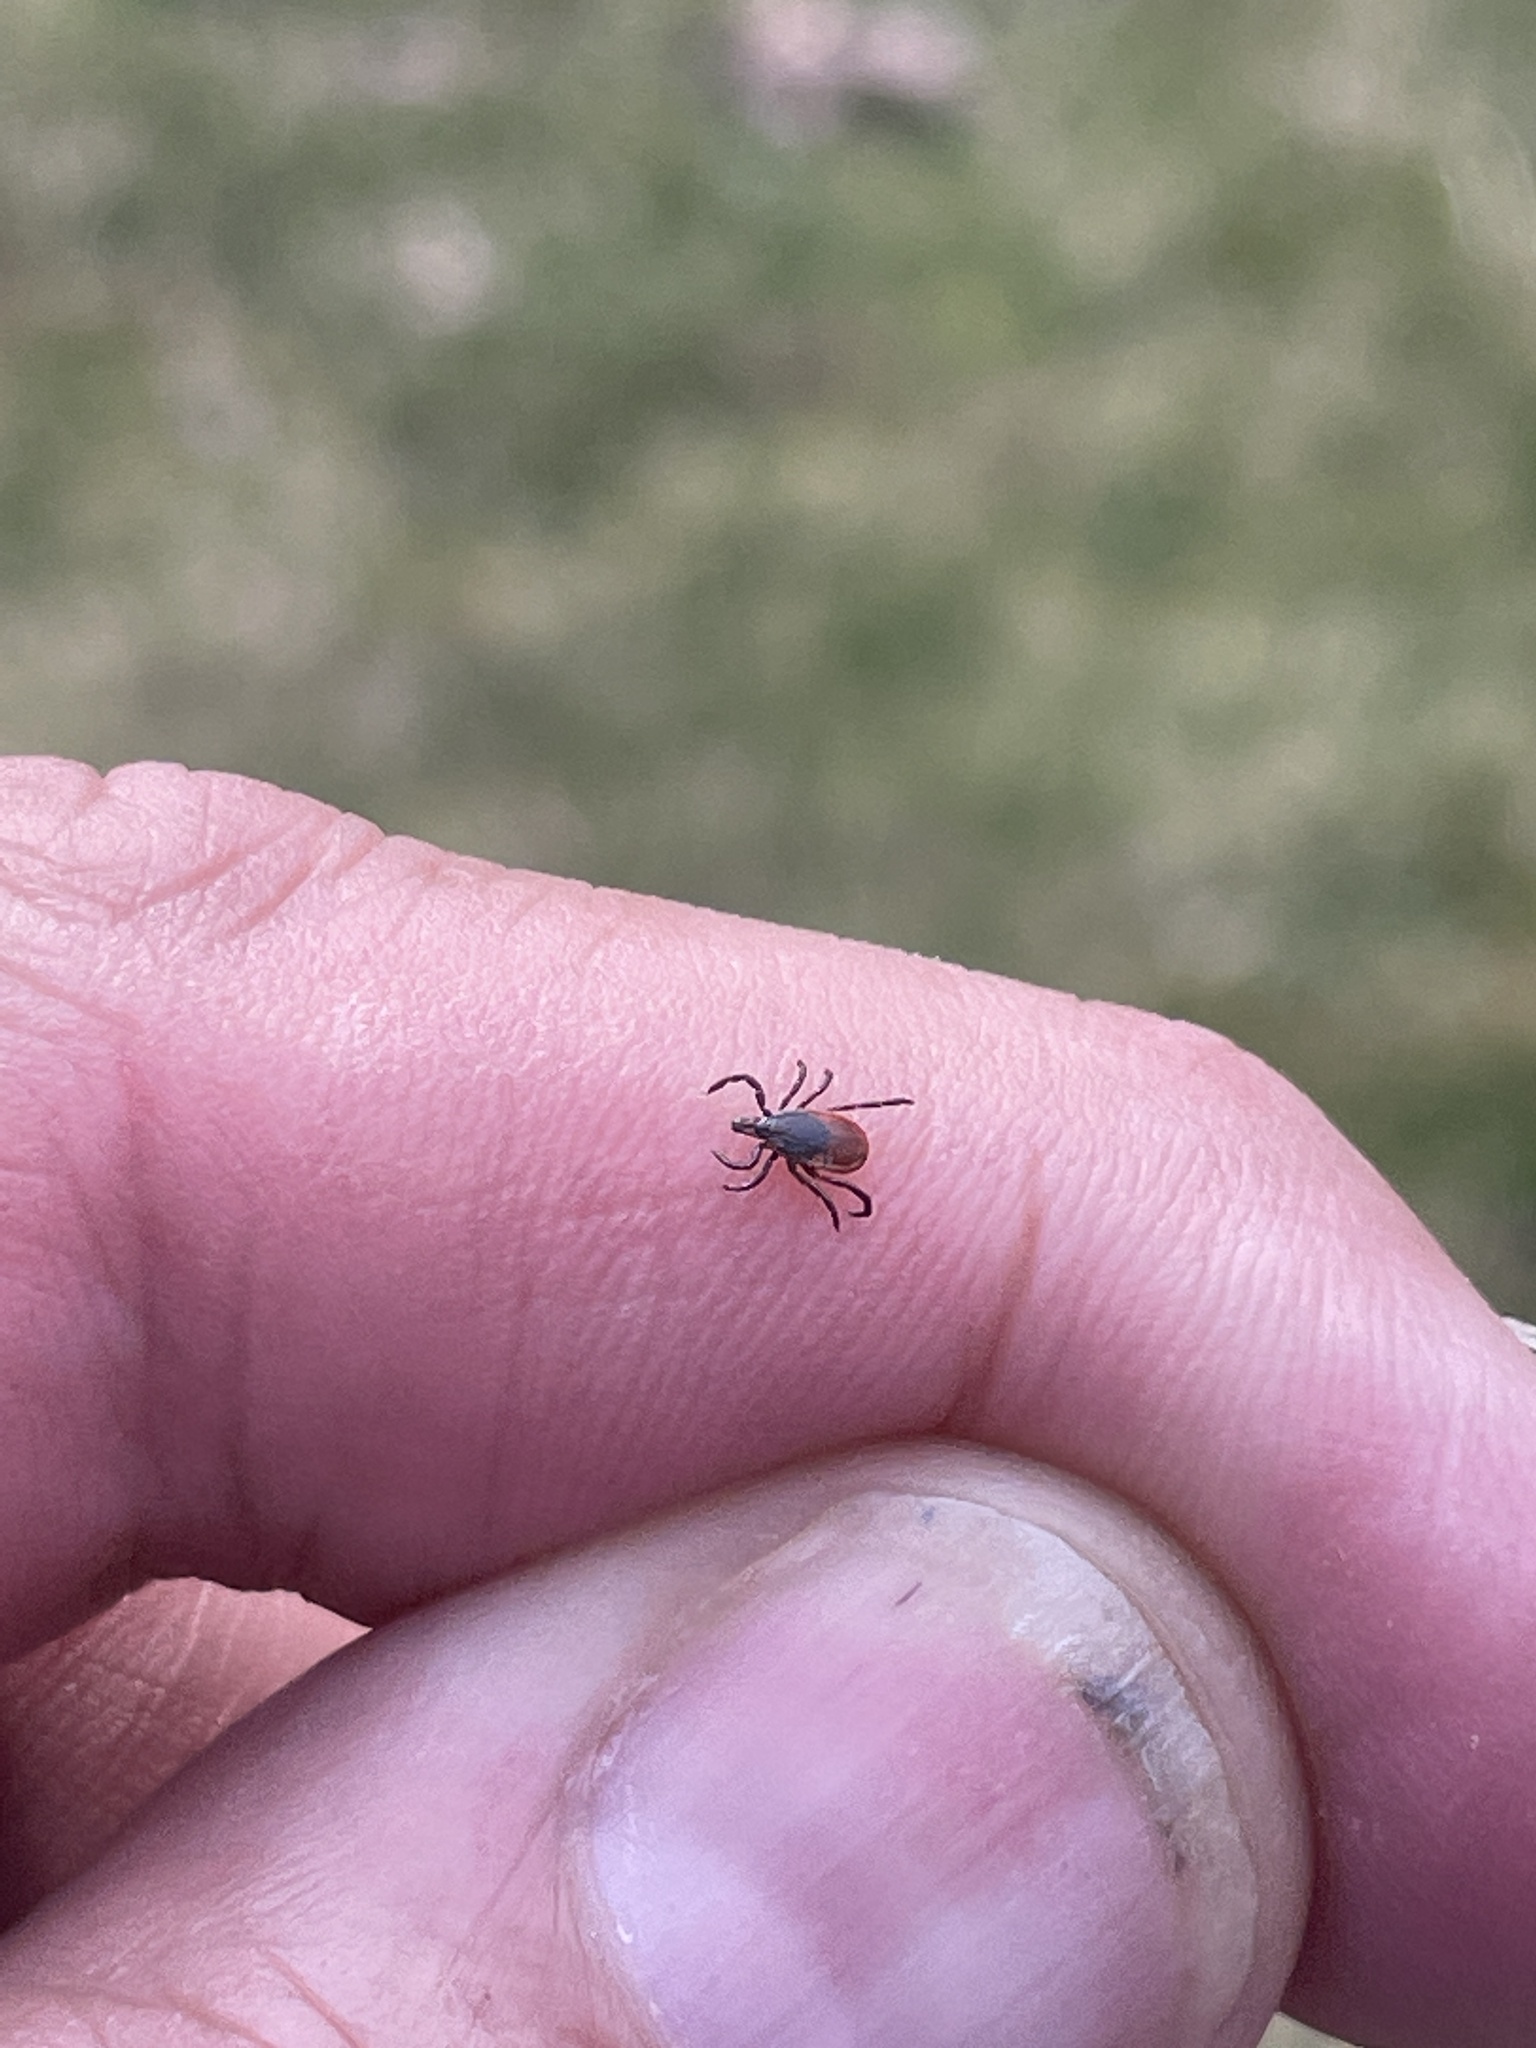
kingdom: Animalia
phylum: Arthropoda
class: Arachnida
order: Ixodida
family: Ixodidae
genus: Ixodes
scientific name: Ixodes scapularis
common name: Black legged tick
